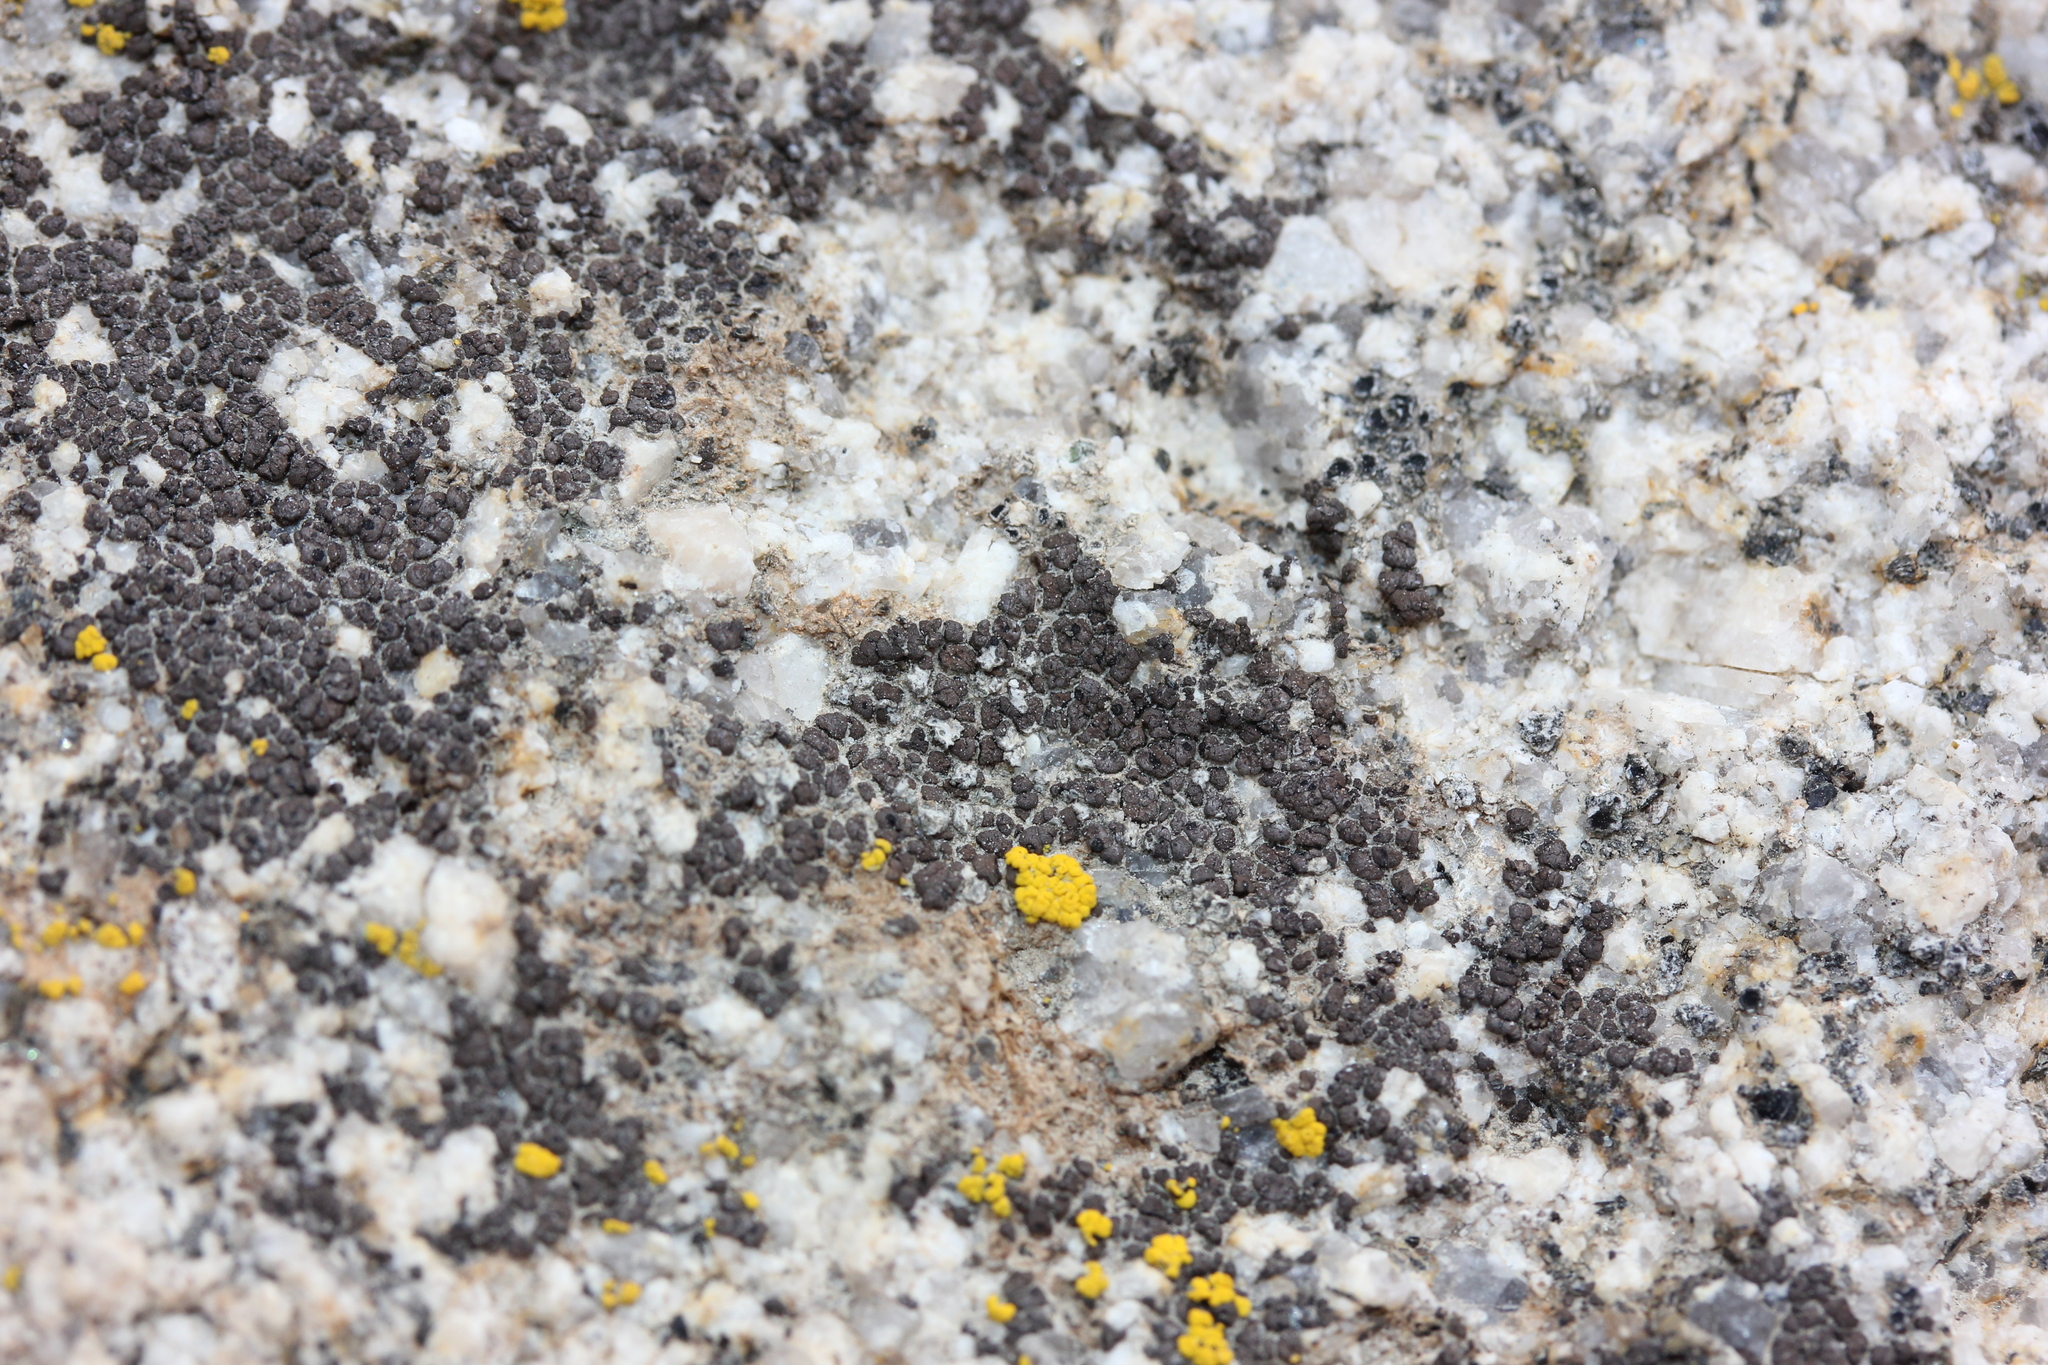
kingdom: Fungi
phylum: Ascomycota
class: Eurotiomycetes
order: Verrucariales
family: Verrucariaceae
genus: Heteroplacidium
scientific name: Heteroplacidium acarosporoides
